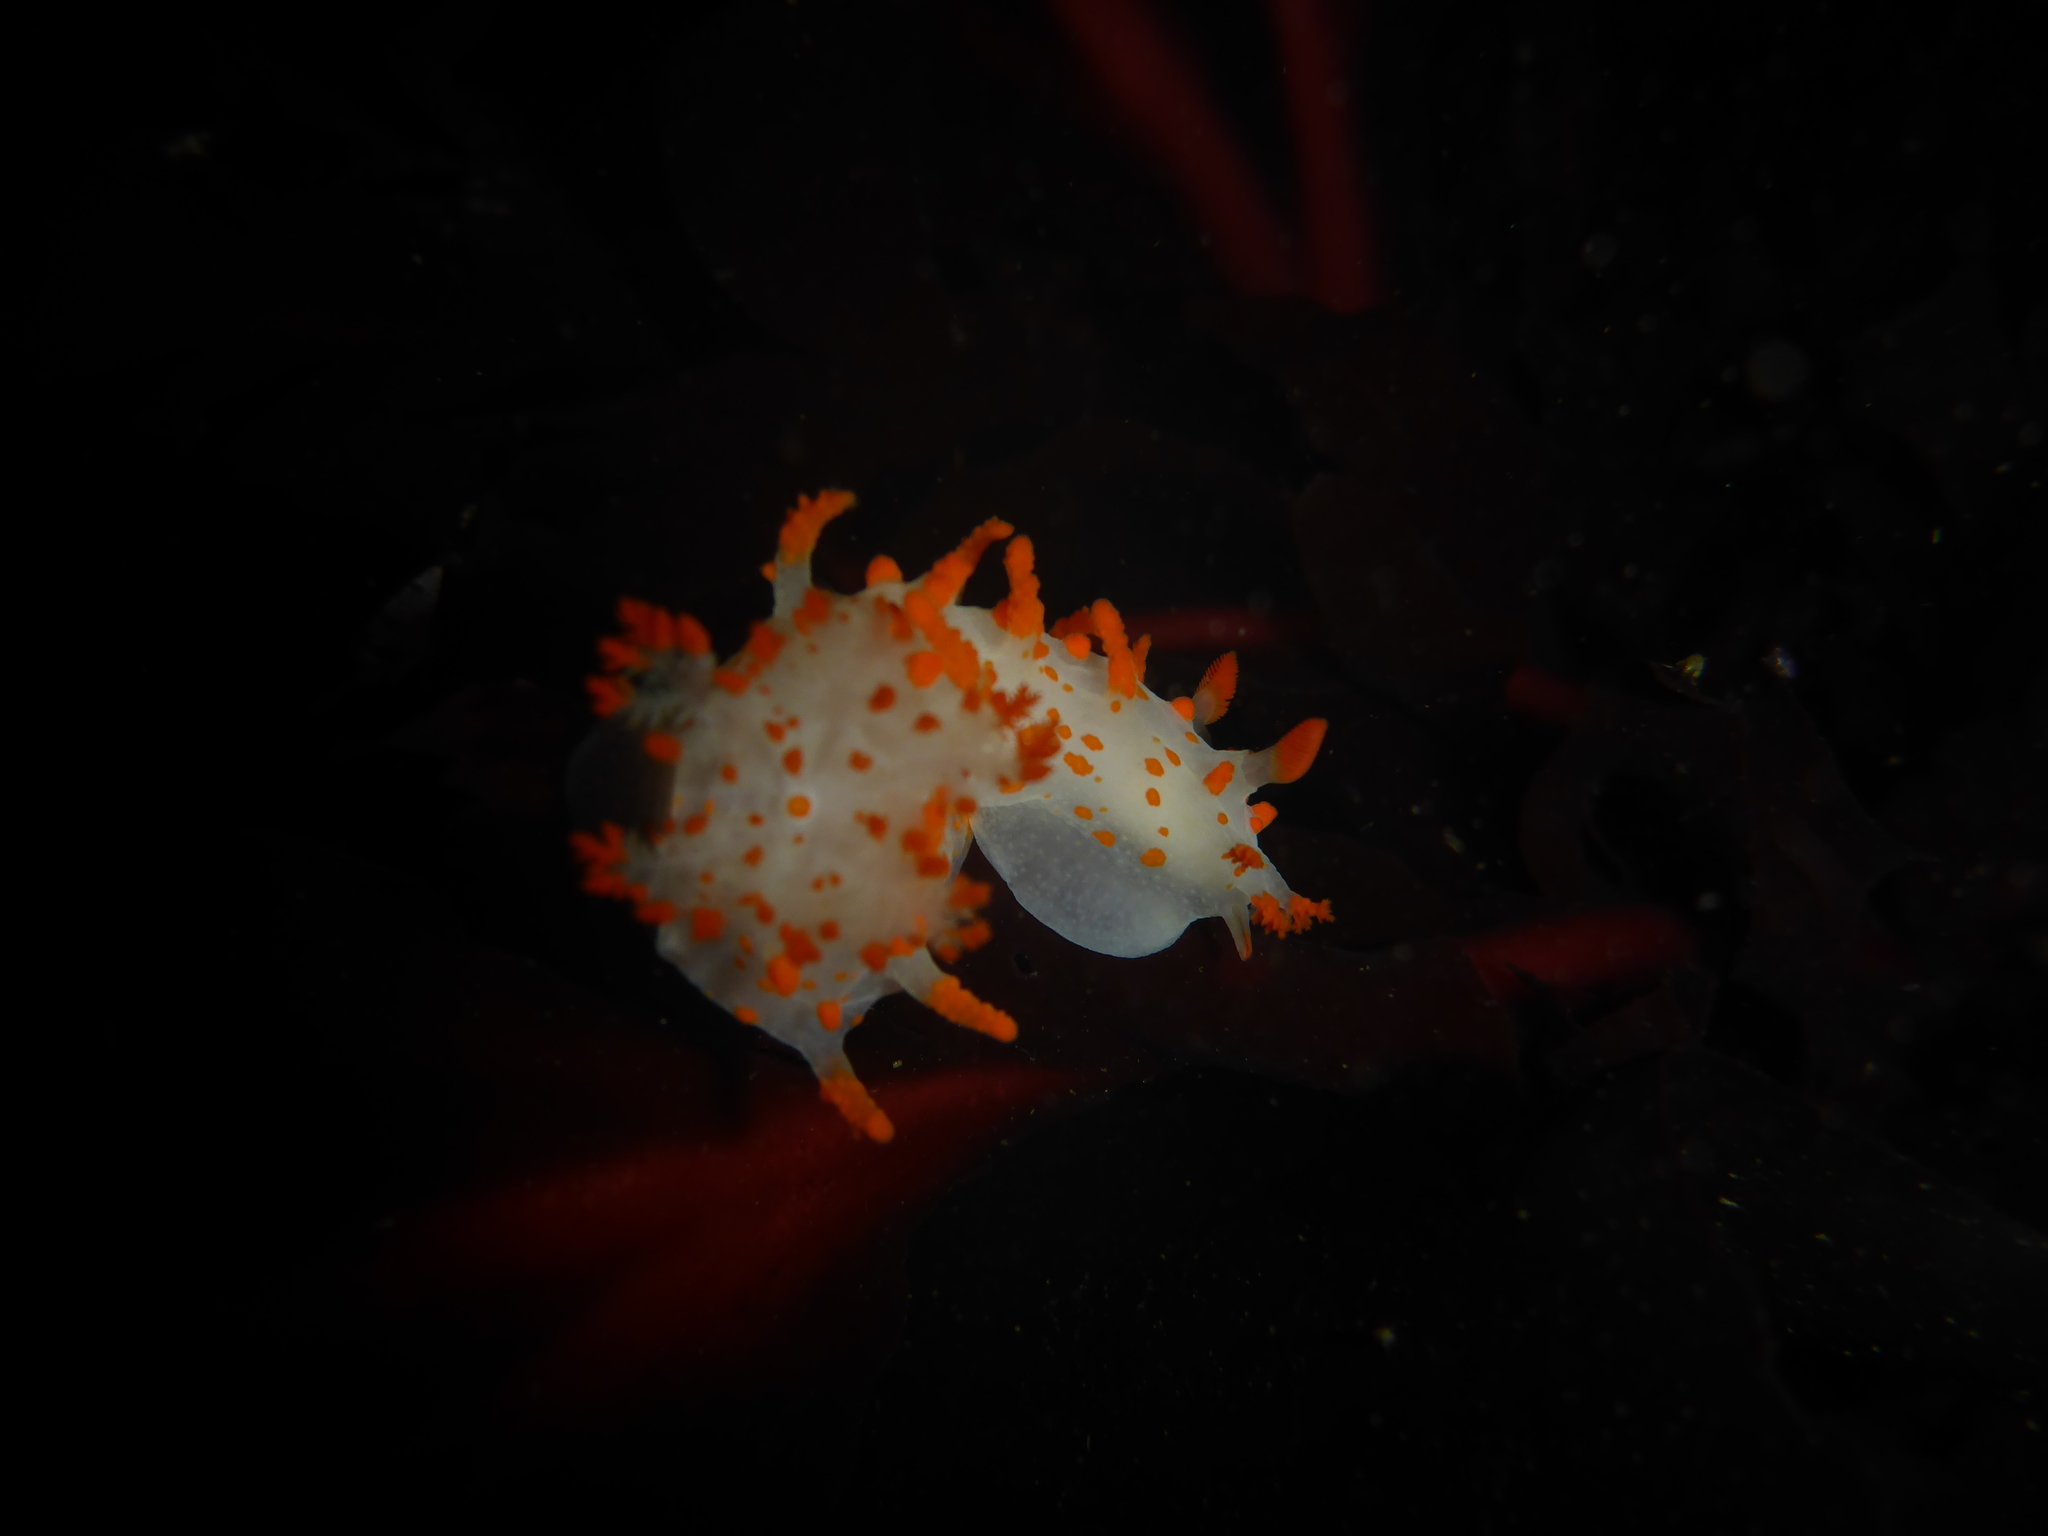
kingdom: Animalia
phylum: Mollusca
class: Gastropoda
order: Nudibranchia
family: Polyceridae
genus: Triopha
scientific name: Triopha catalinae
